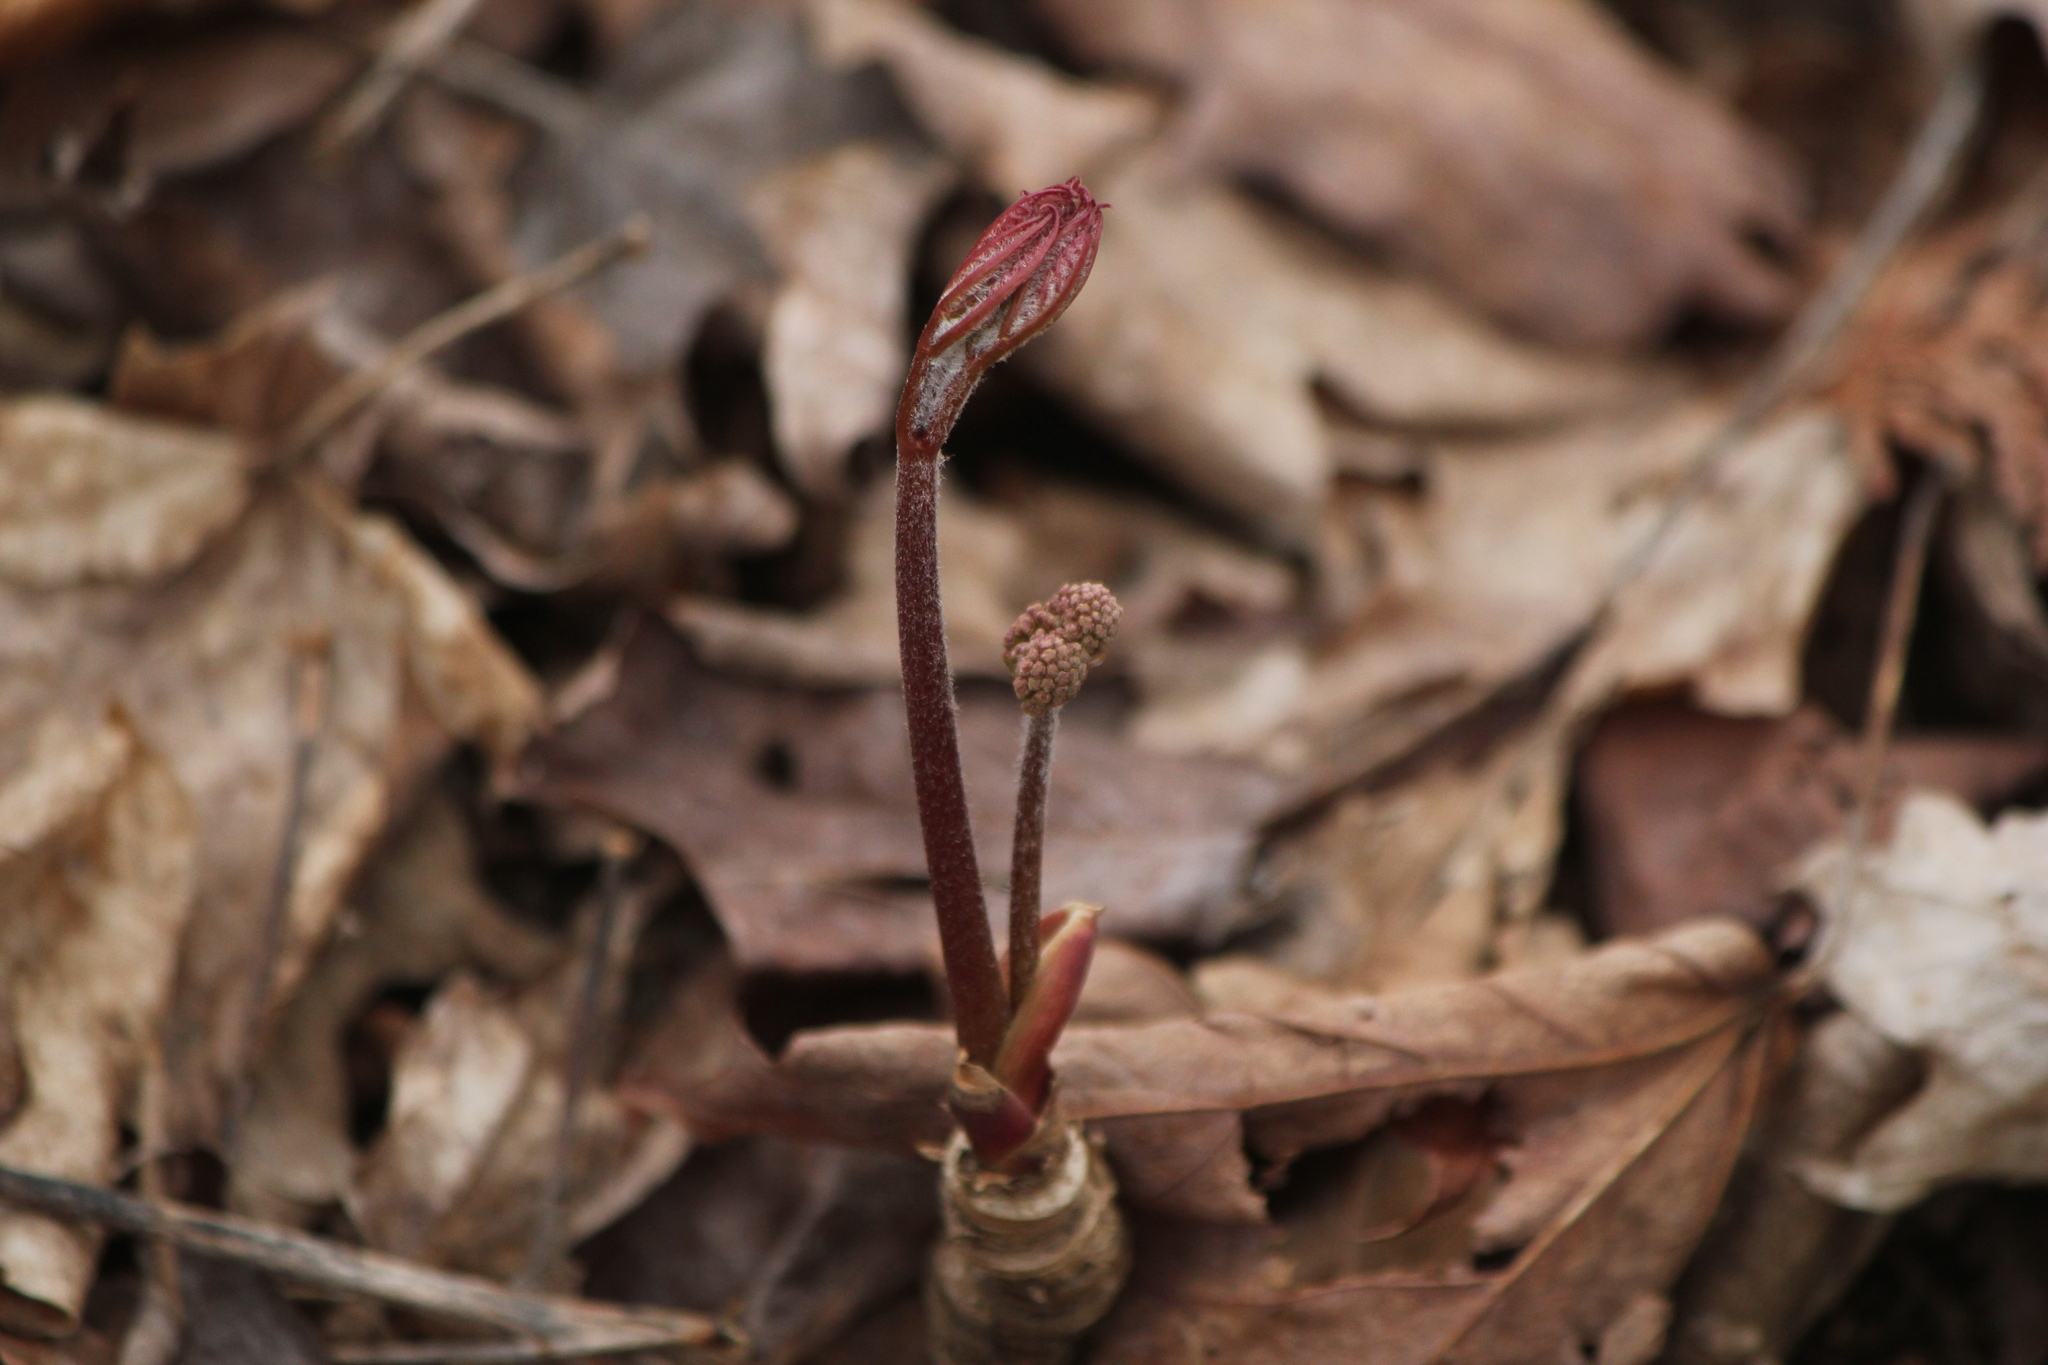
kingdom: Plantae
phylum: Tracheophyta
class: Magnoliopsida
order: Apiales
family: Araliaceae
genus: Aralia
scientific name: Aralia nudicaulis
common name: Wild sarsaparilla
